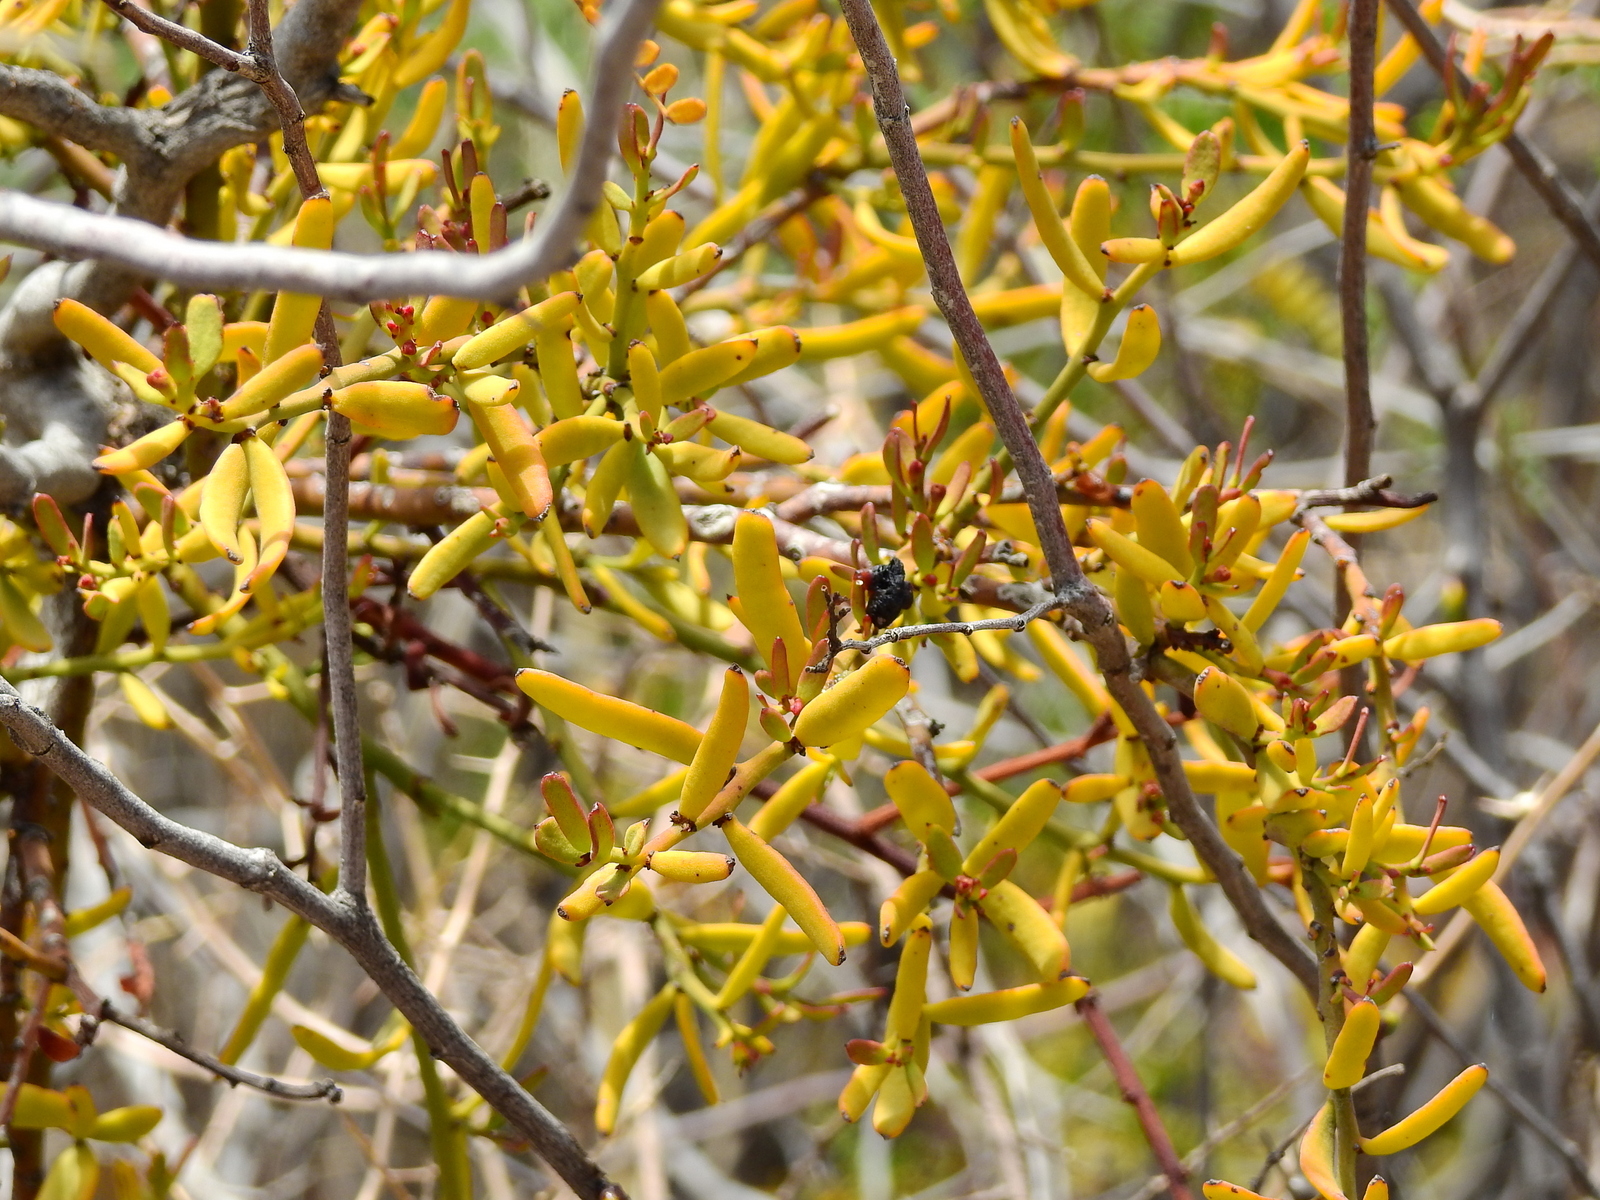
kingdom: Plantae
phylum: Tracheophyta
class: Magnoliopsida
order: Santalales
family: Loranthaceae
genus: Ligaria
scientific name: Ligaria cuneifolia
